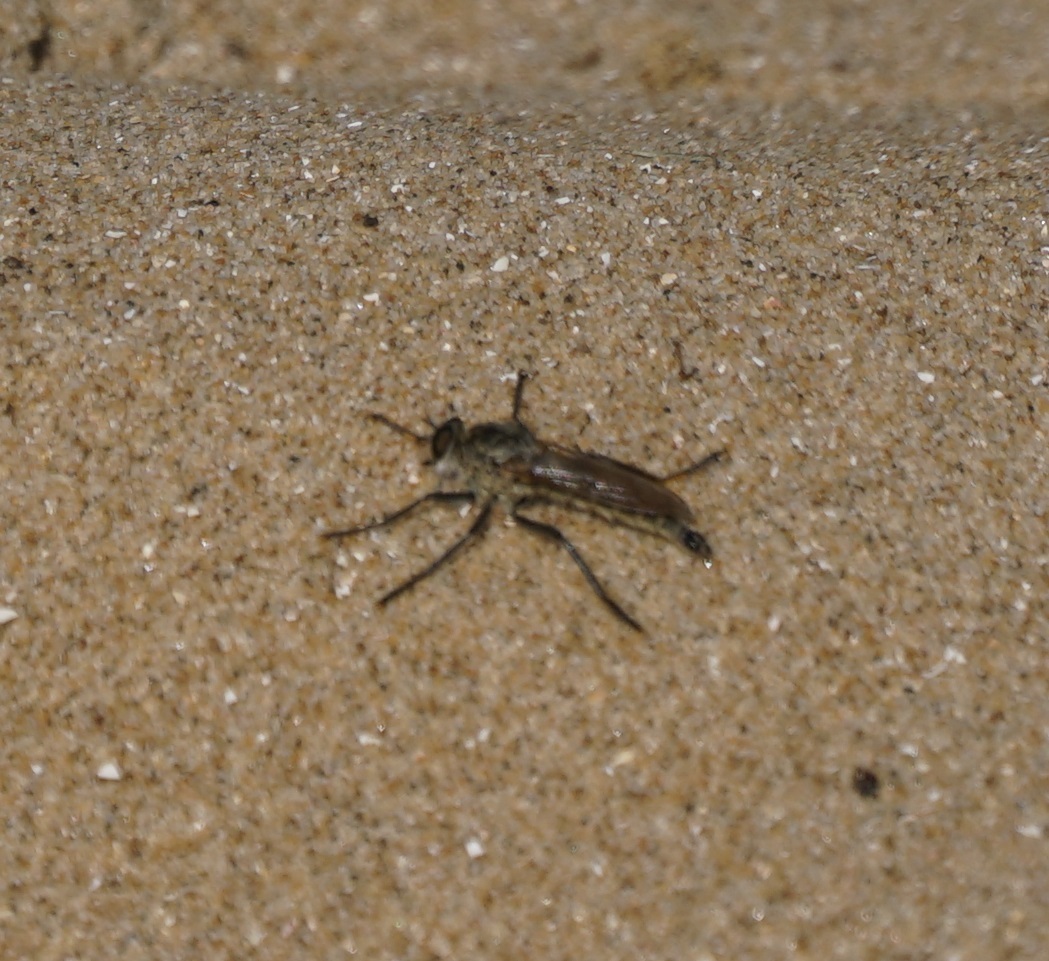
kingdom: Animalia
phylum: Arthropoda
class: Insecta
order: Diptera
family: Asilidae
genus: Philonicus
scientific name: Philonicus albiceps
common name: Dune robberfly
